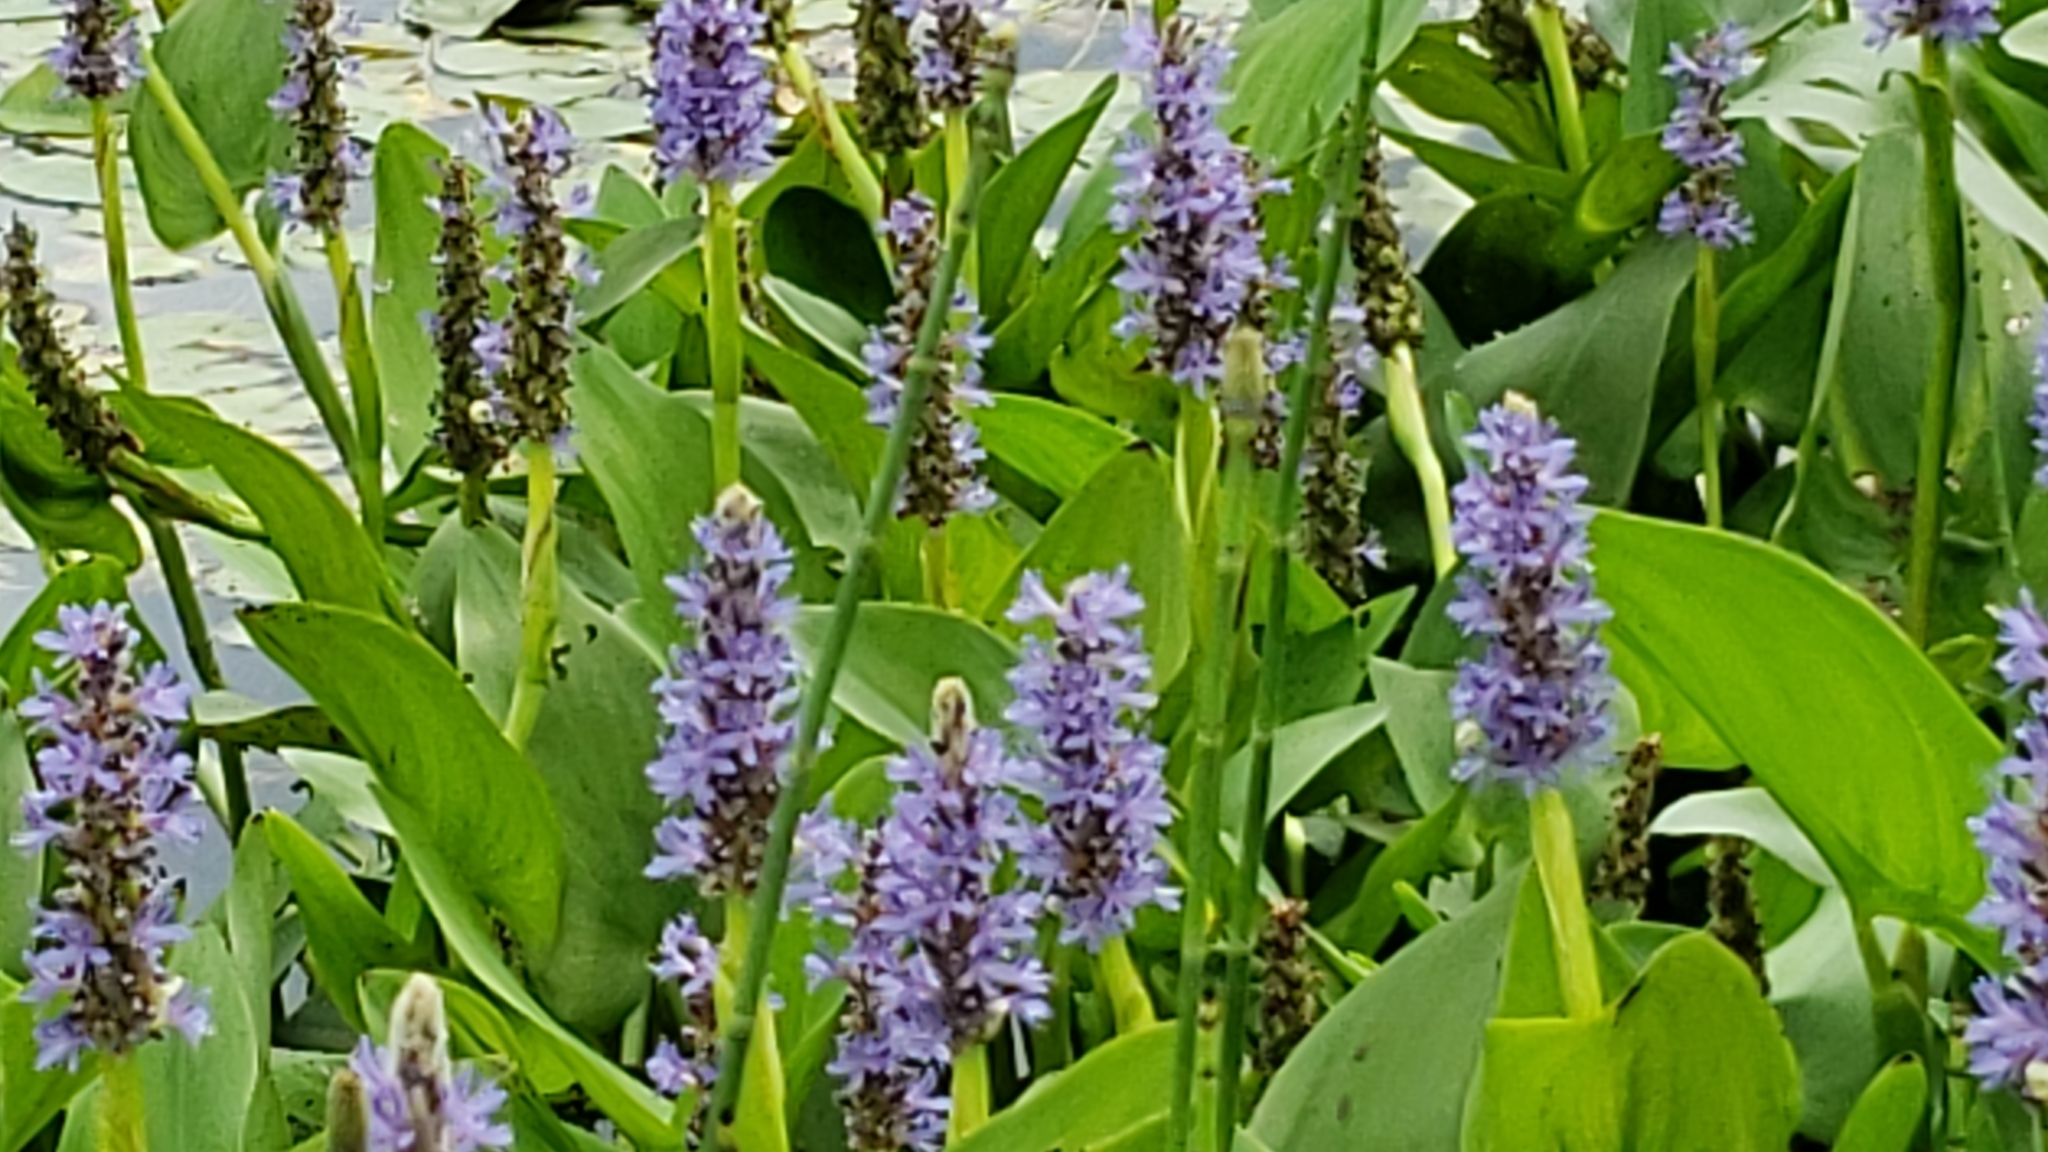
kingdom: Plantae
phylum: Tracheophyta
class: Liliopsida
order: Commelinales
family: Pontederiaceae
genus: Pontederia
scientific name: Pontederia cordata
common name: Pickerelweed
